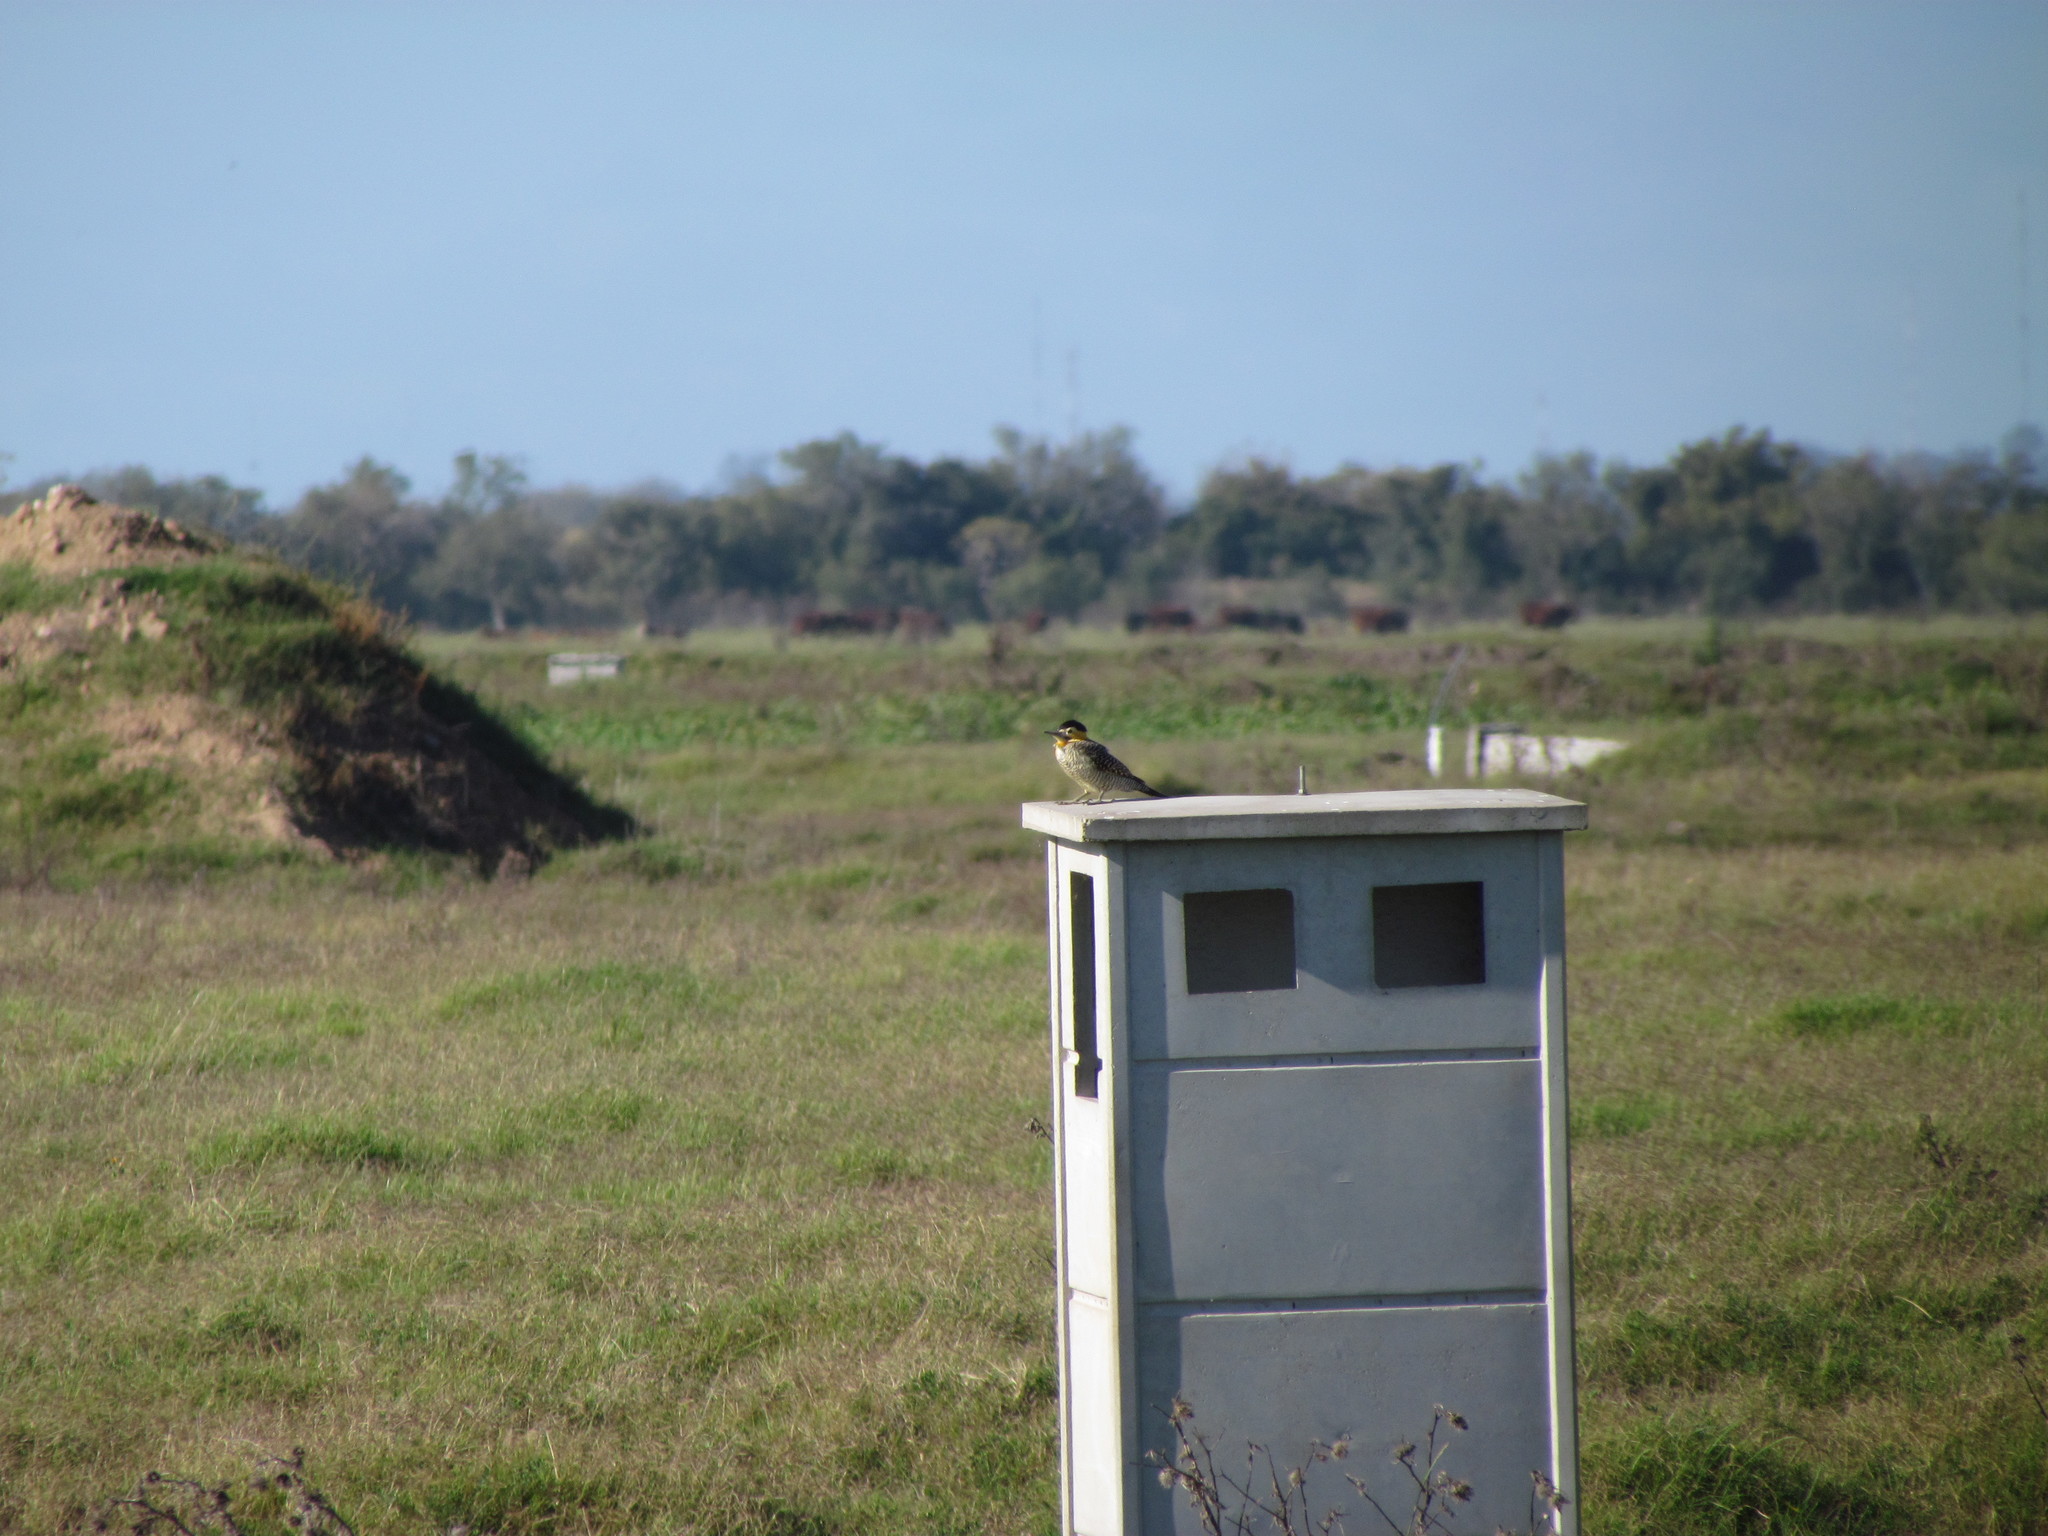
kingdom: Animalia
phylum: Chordata
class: Aves
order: Piciformes
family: Picidae
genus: Colaptes
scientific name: Colaptes campestris
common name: Campo flicker
